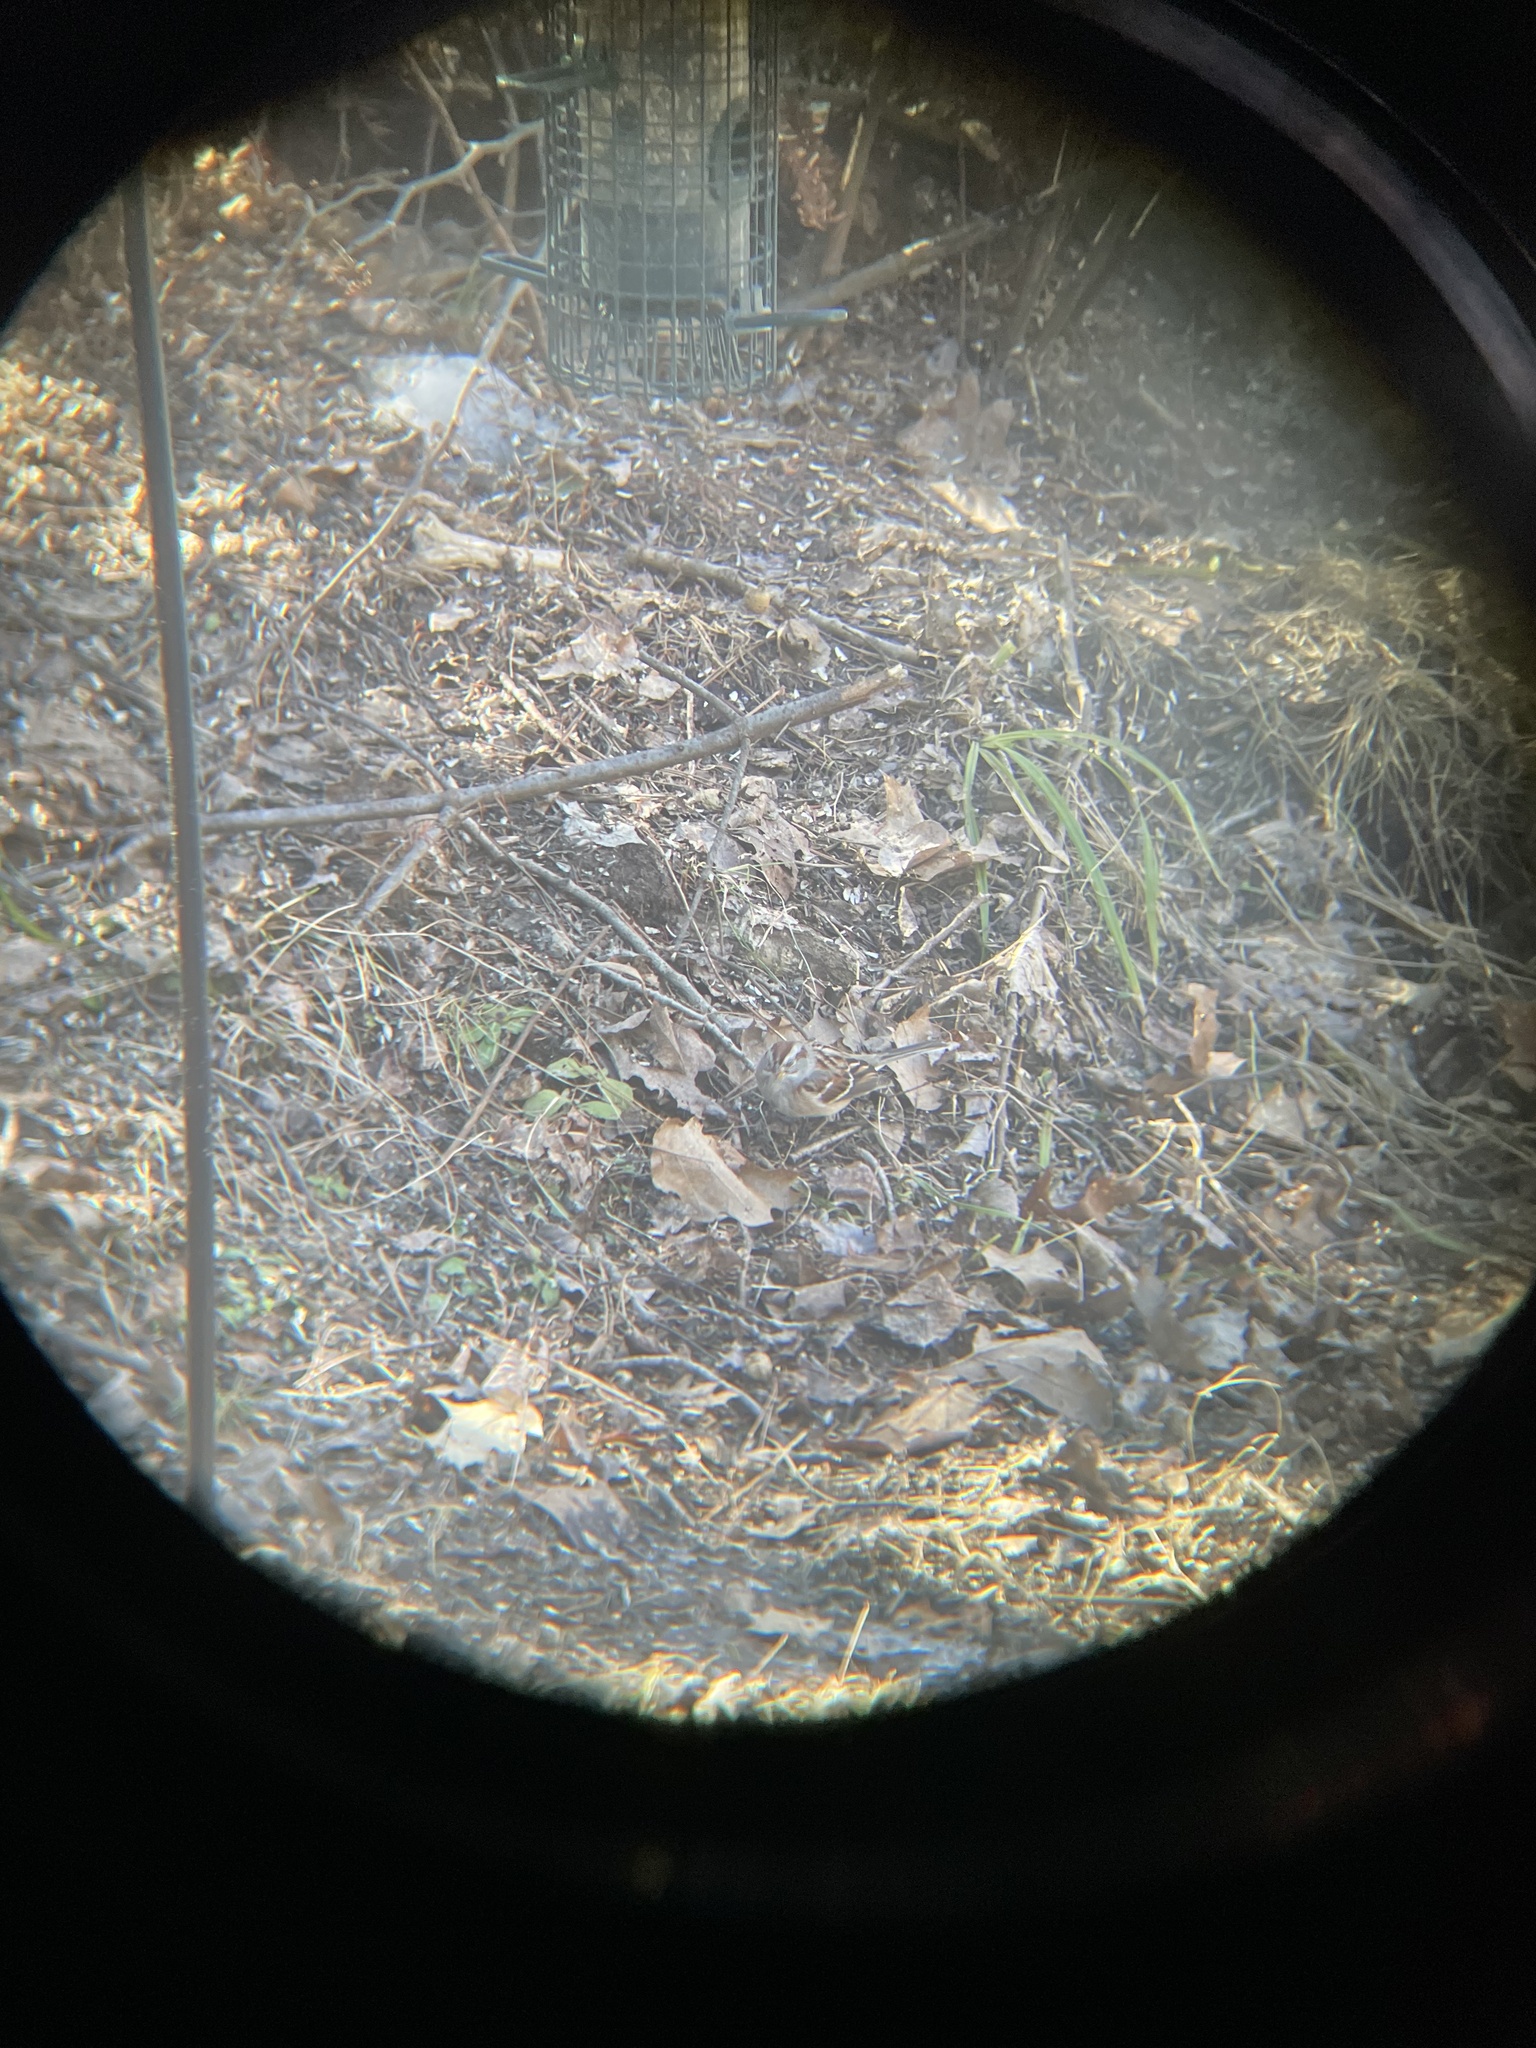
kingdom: Animalia
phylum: Chordata
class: Aves
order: Passeriformes
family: Passerellidae
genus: Spizelloides
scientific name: Spizelloides arborea
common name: American tree sparrow
